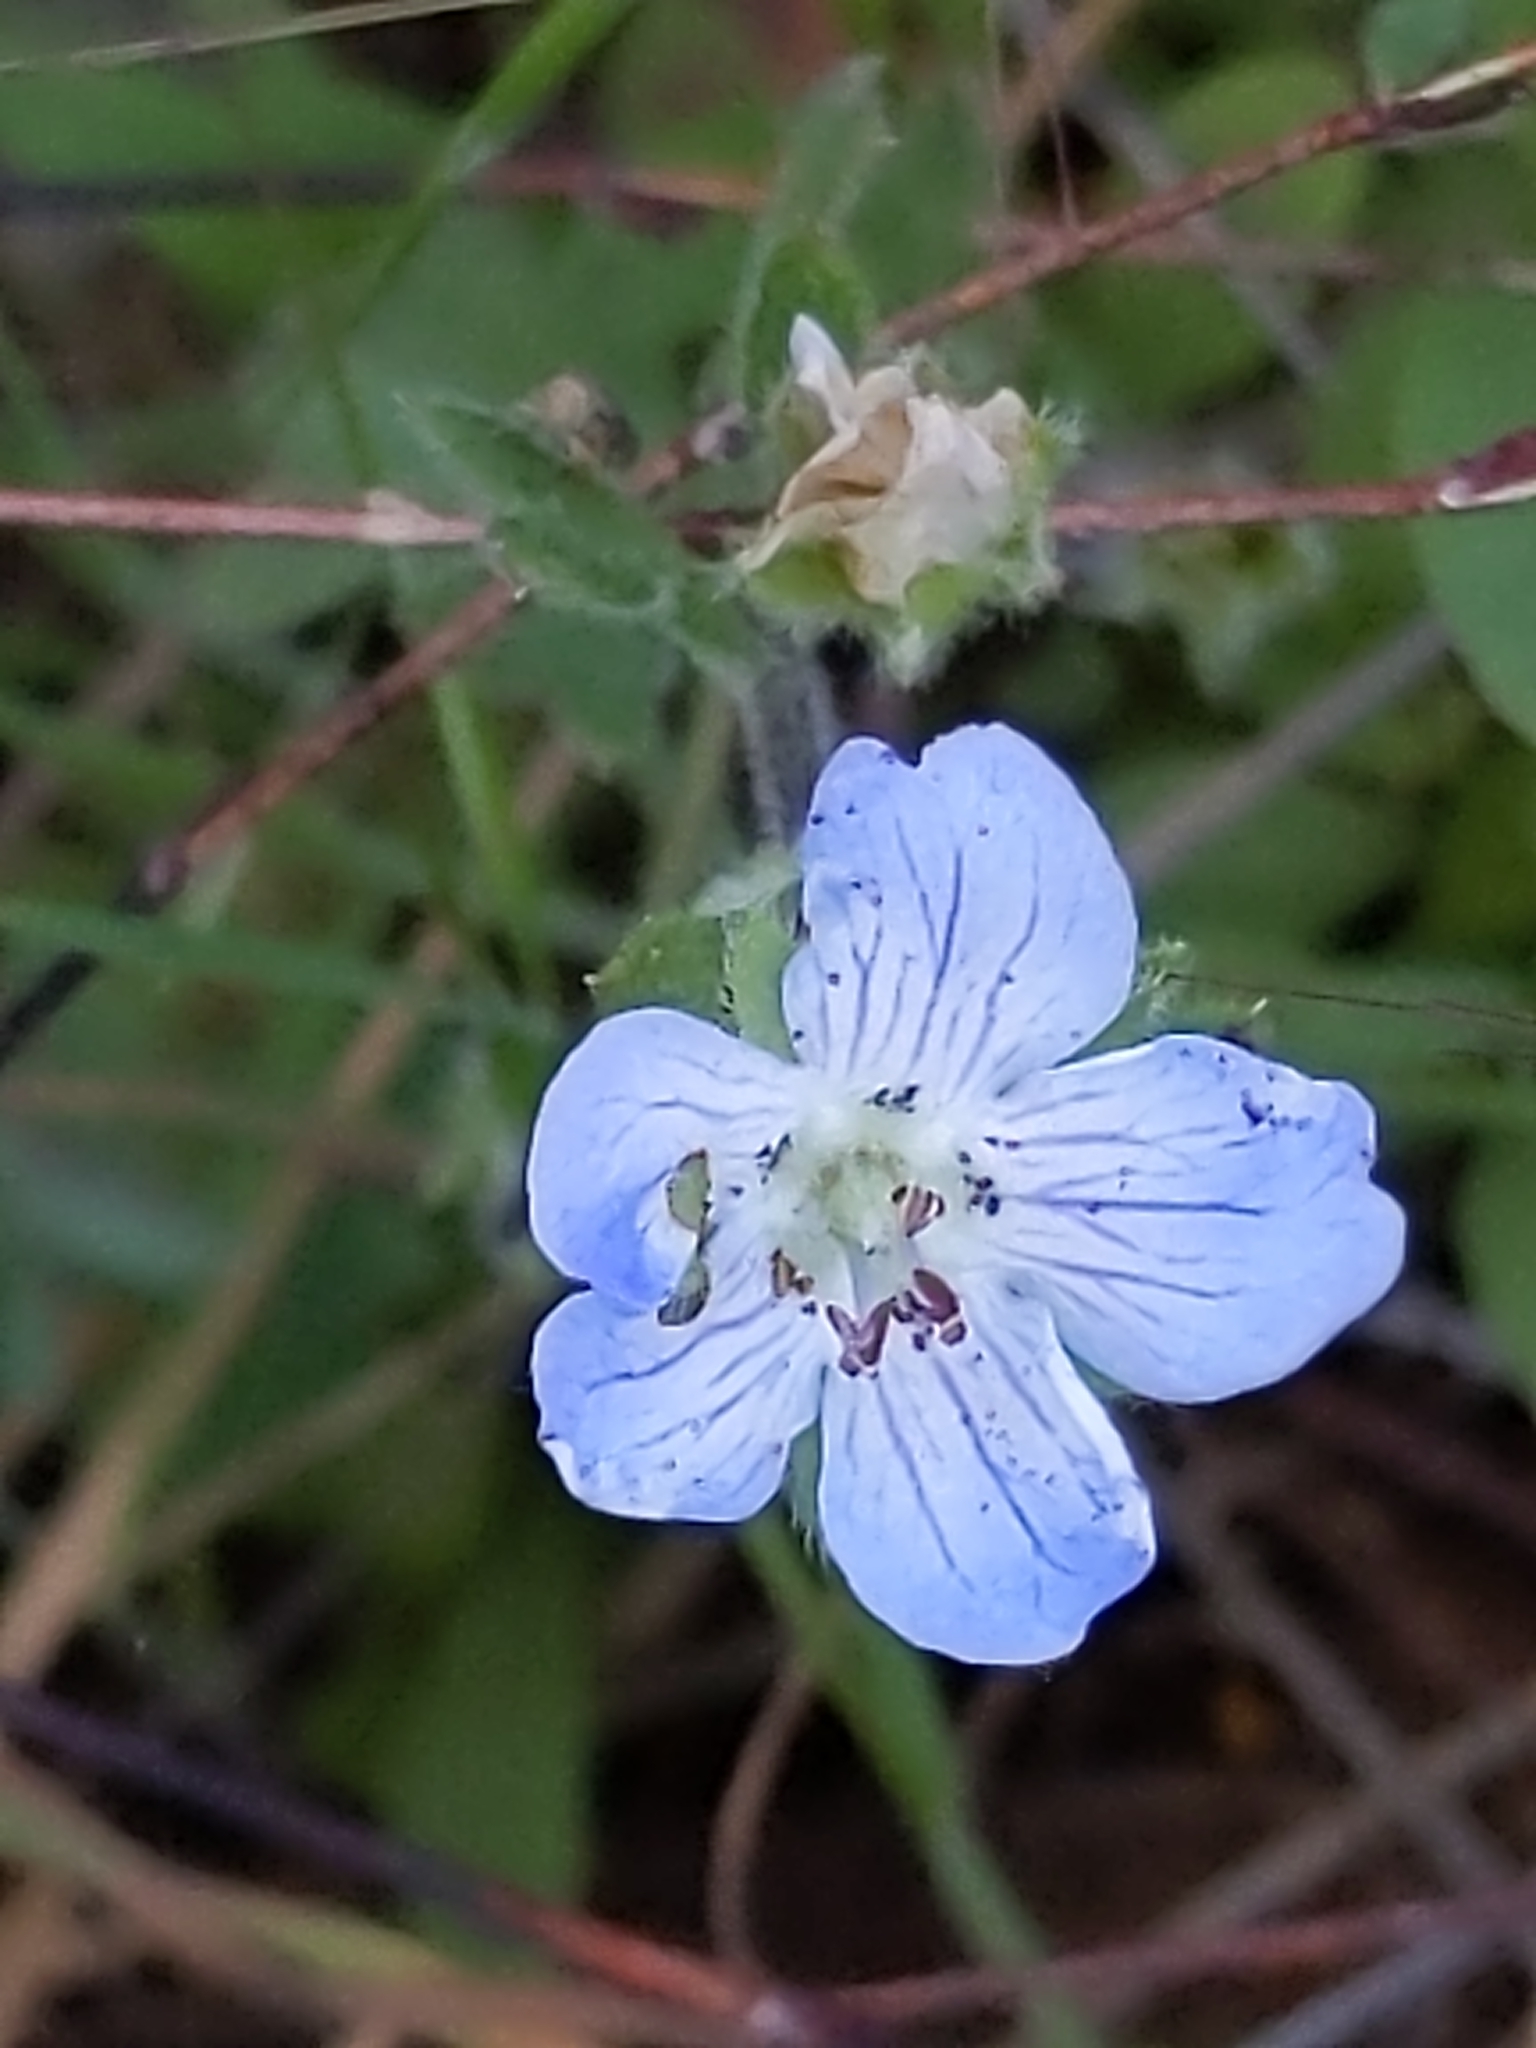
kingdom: Plantae
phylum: Tracheophyta
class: Magnoliopsida
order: Boraginales
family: Hydrophyllaceae
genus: Nemophila
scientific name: Nemophila menziesii
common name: Baby's-blue-eyes
